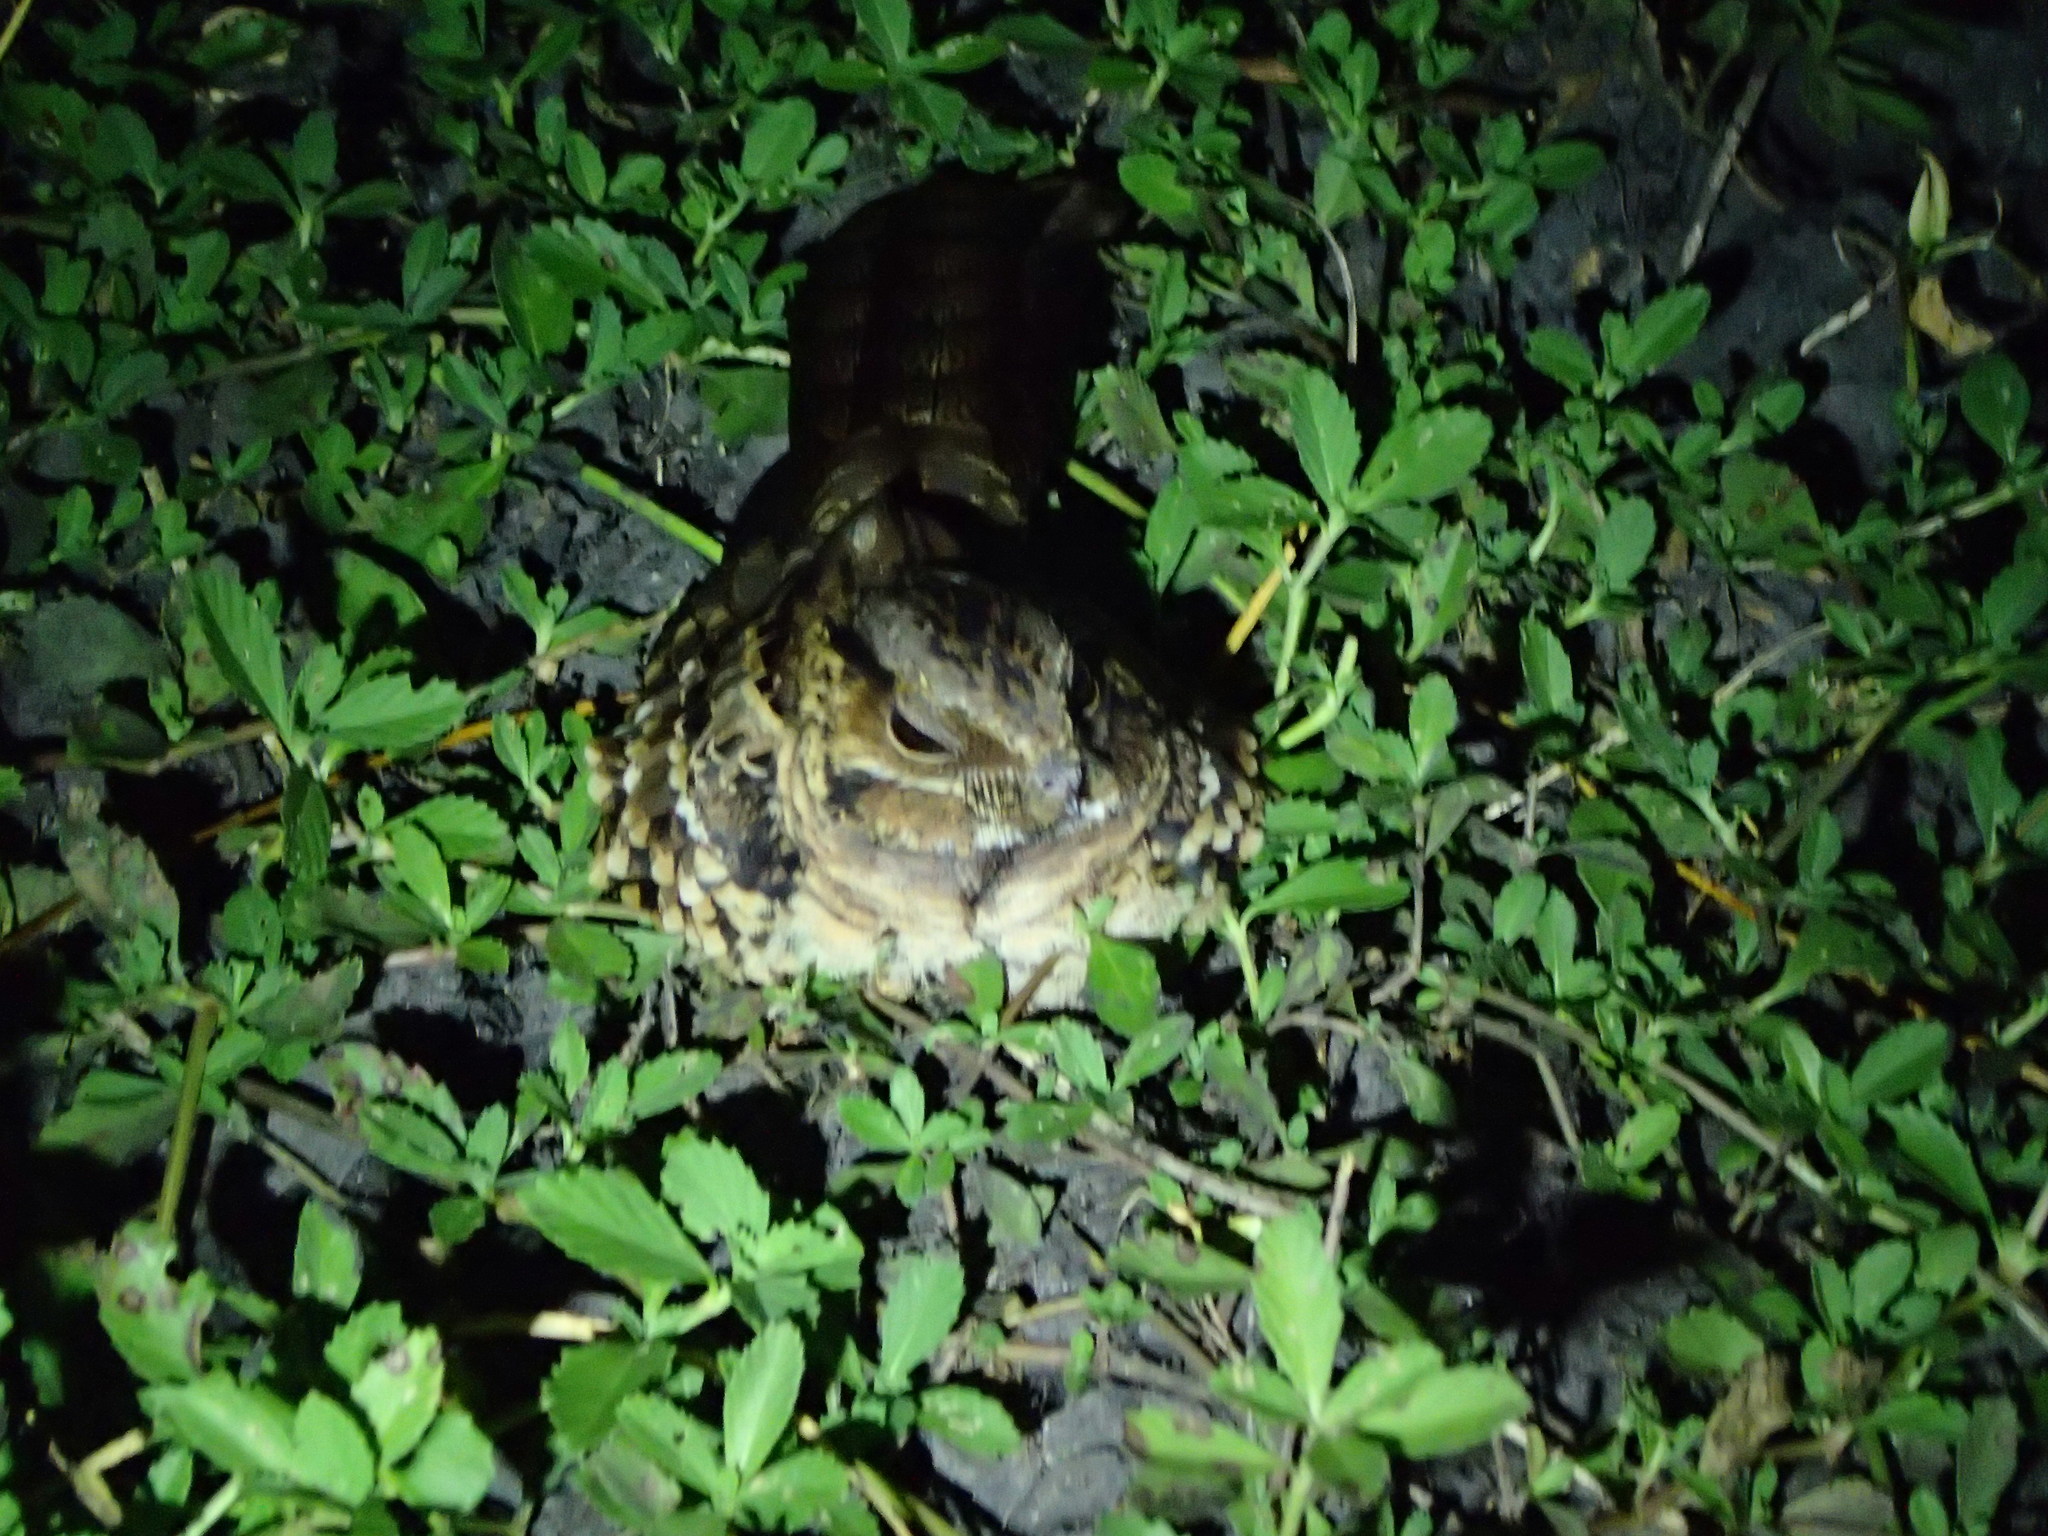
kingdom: Animalia
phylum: Chordata
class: Aves
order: Caprimulgiformes
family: Caprimulgidae
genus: Nyctidromus
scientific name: Nyctidromus albicollis
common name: Pauraque
